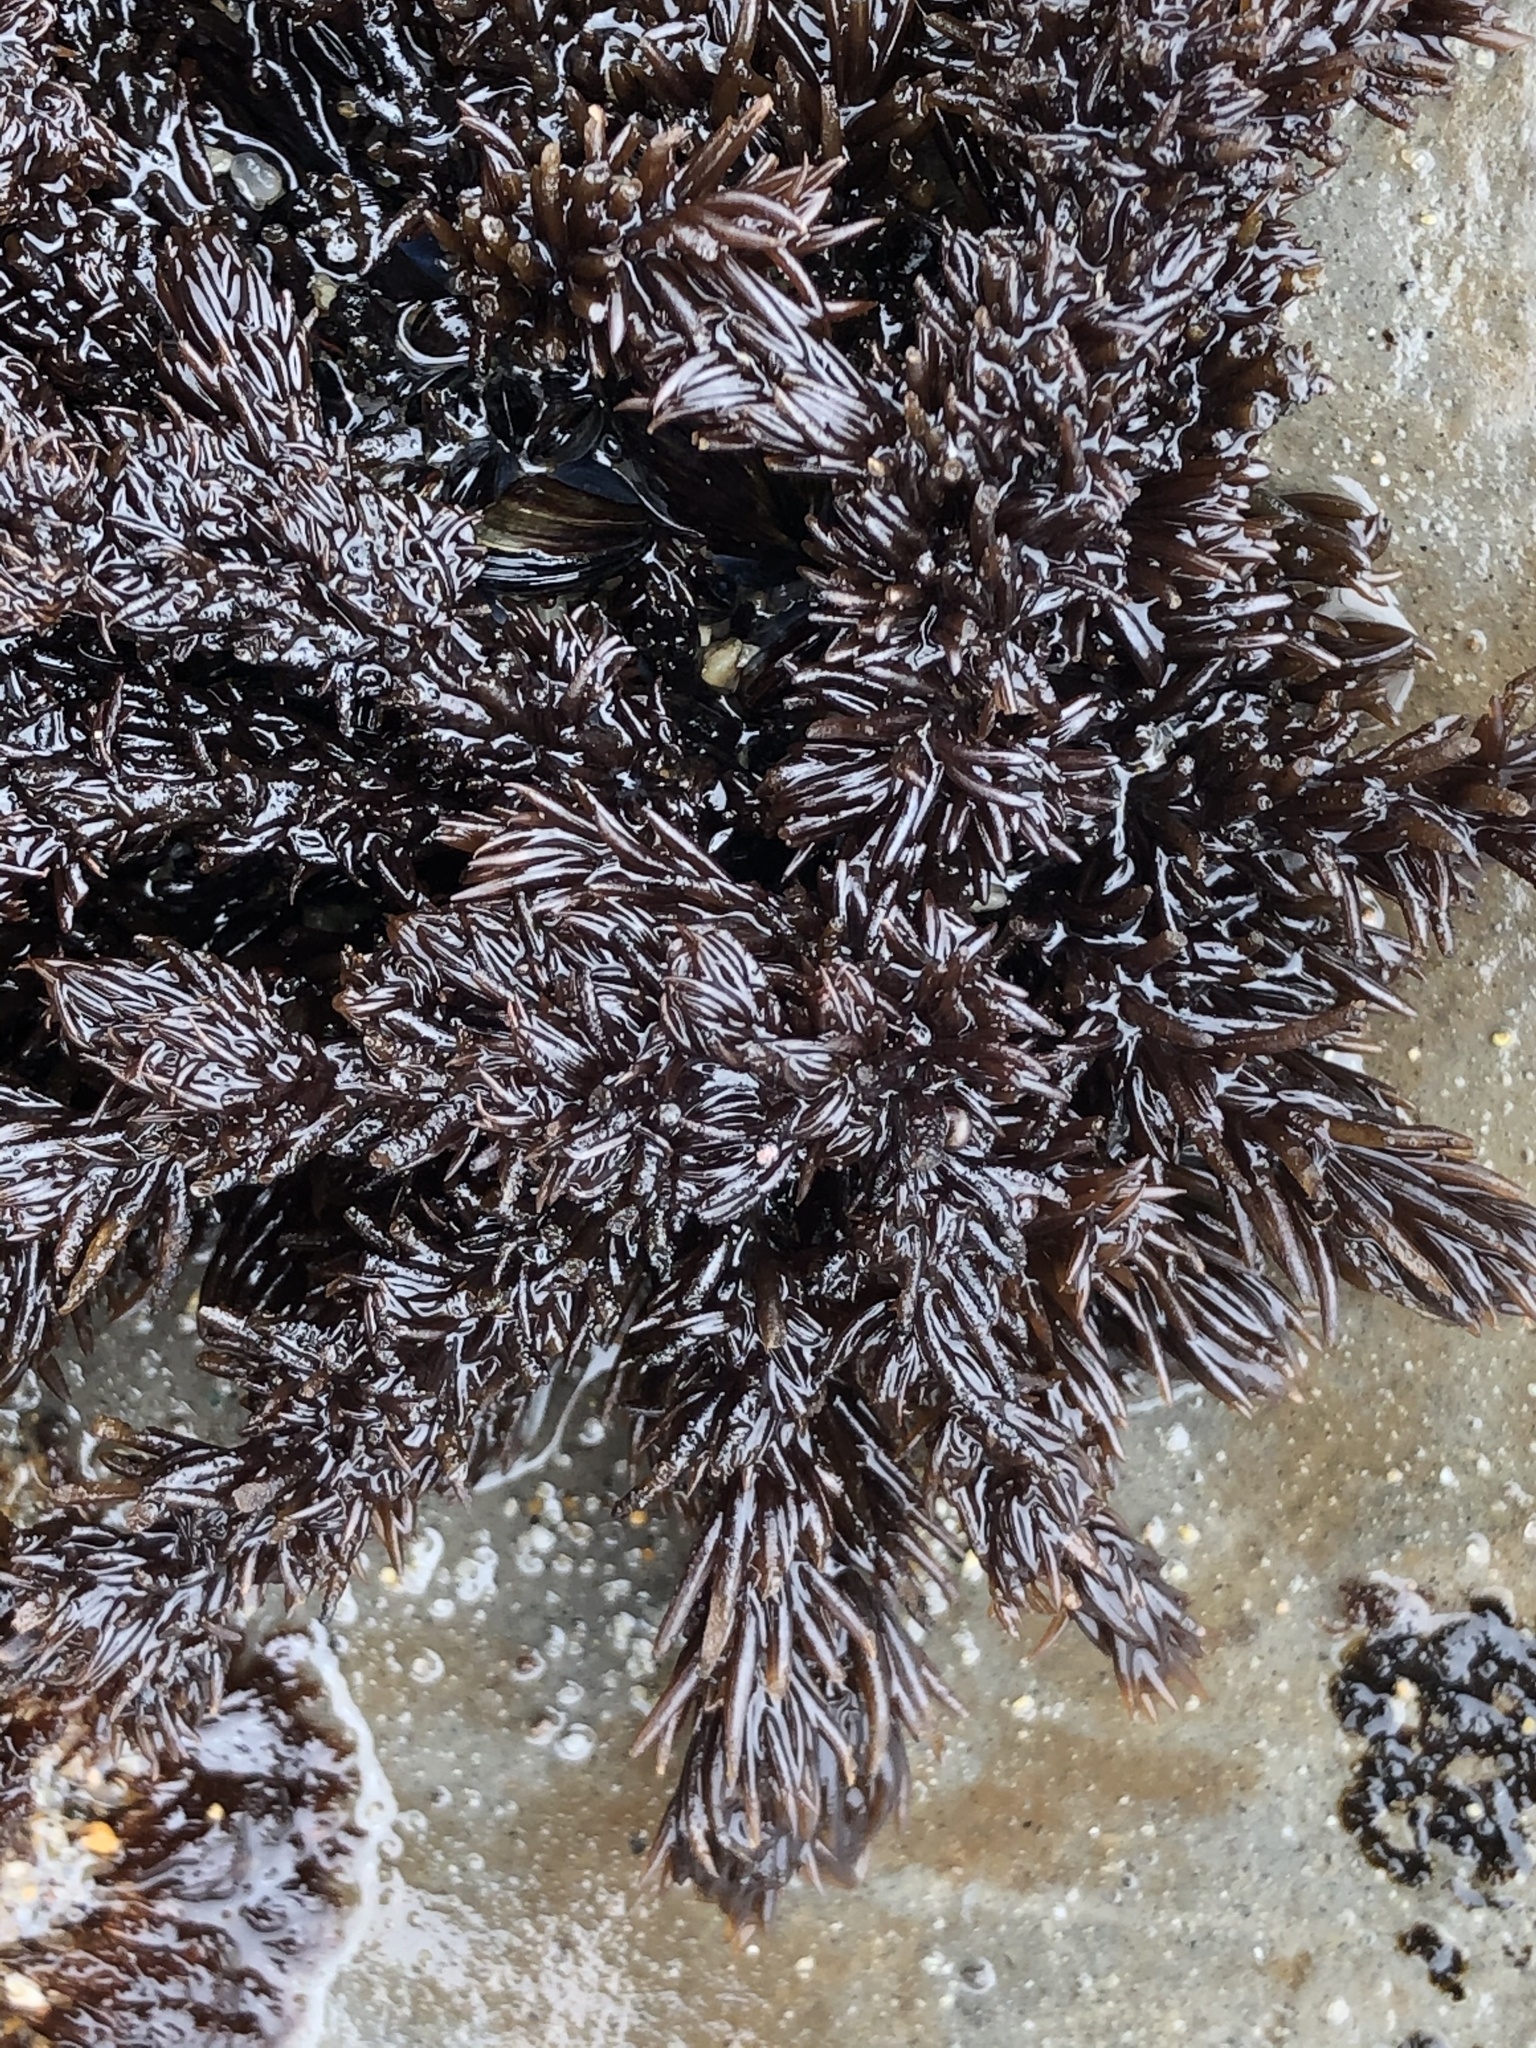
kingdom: Plantae
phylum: Rhodophyta
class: Florideophyceae
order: Ceramiales
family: Rhodomelaceae
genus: Neorhodomela
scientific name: Neorhodomela larix
